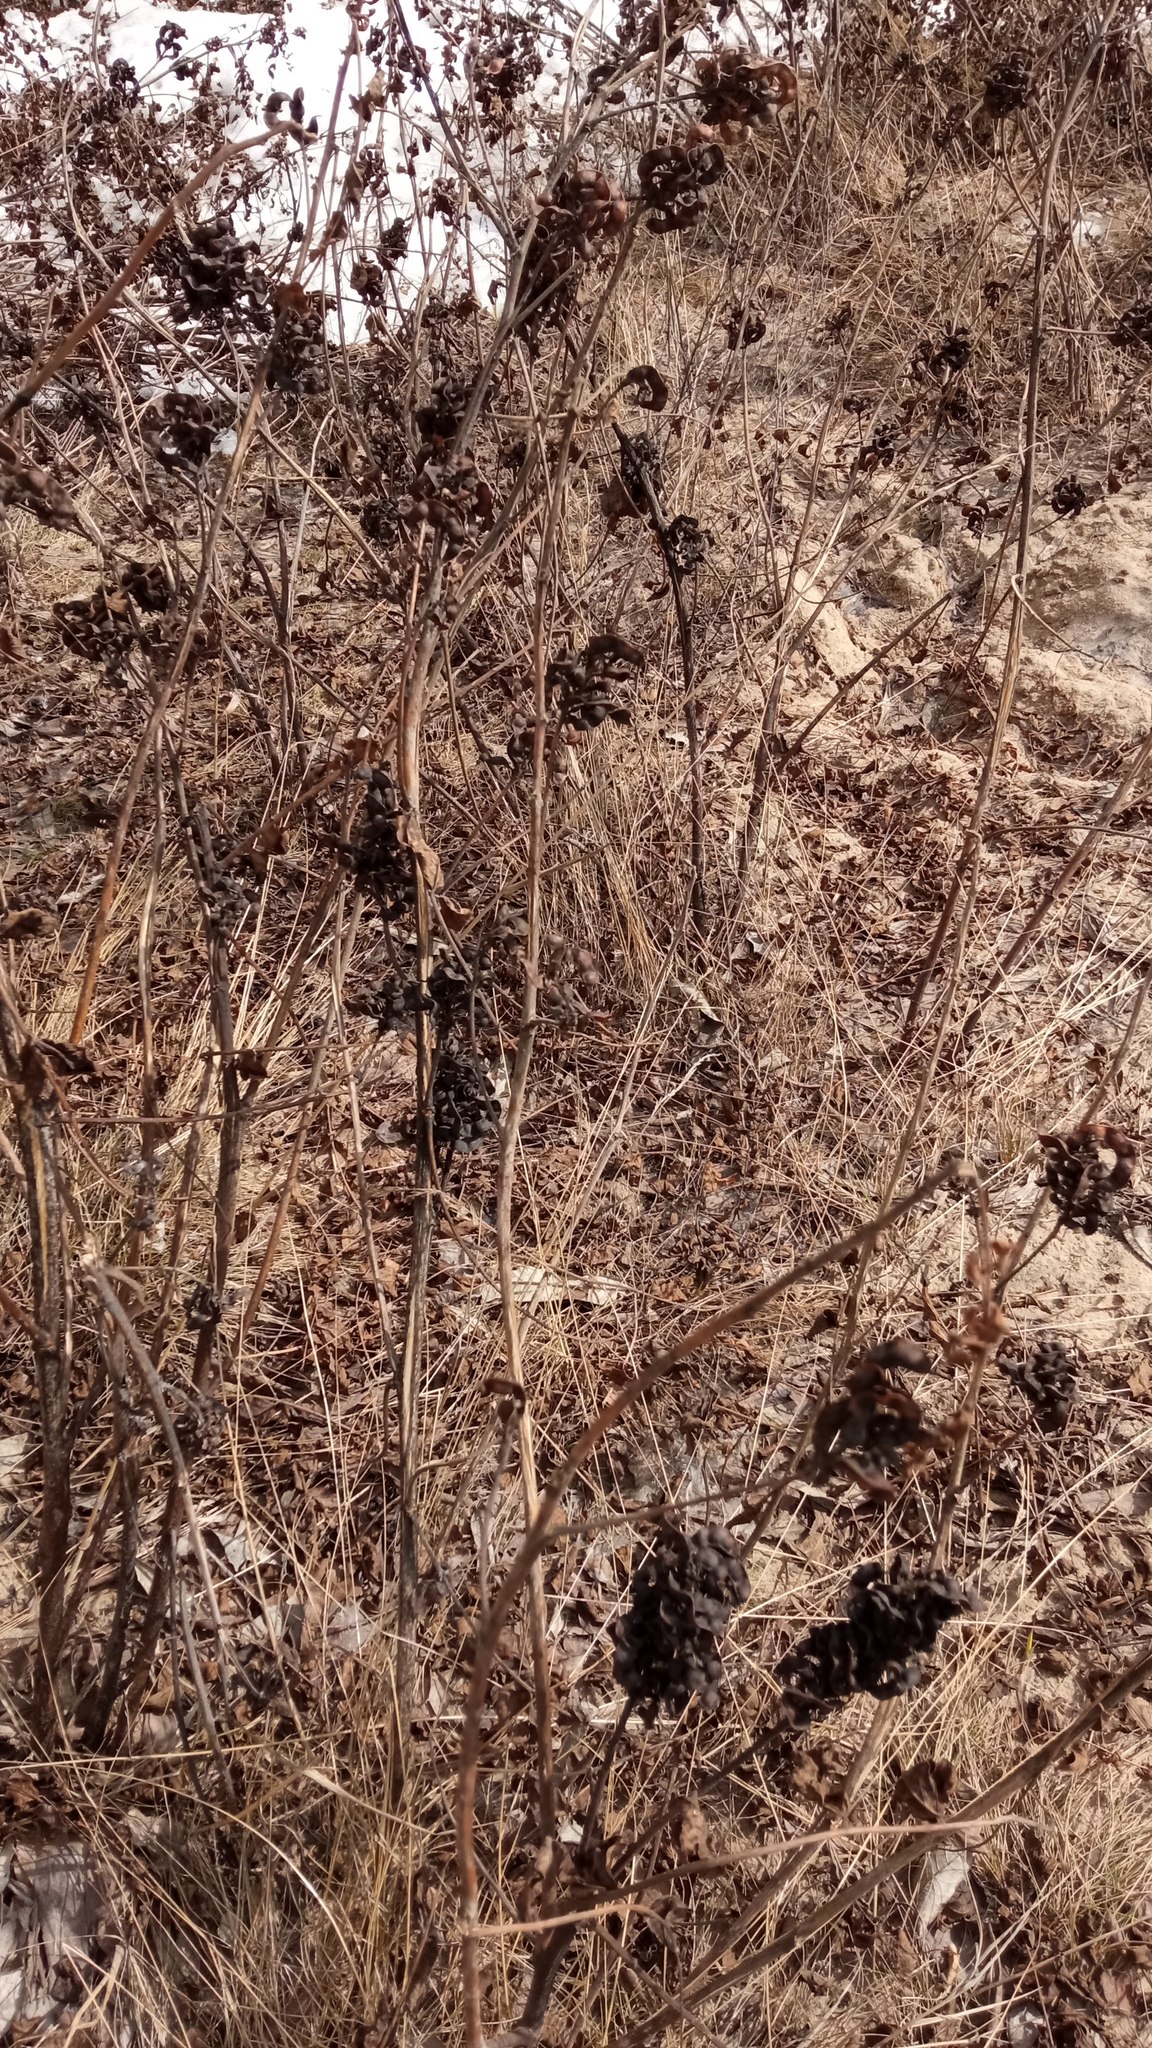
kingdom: Plantae
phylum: Tracheophyta
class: Magnoliopsida
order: Fabales
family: Fabaceae
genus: Glycyrrhiza
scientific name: Glycyrrhiza uralensis
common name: Chinese licorice
